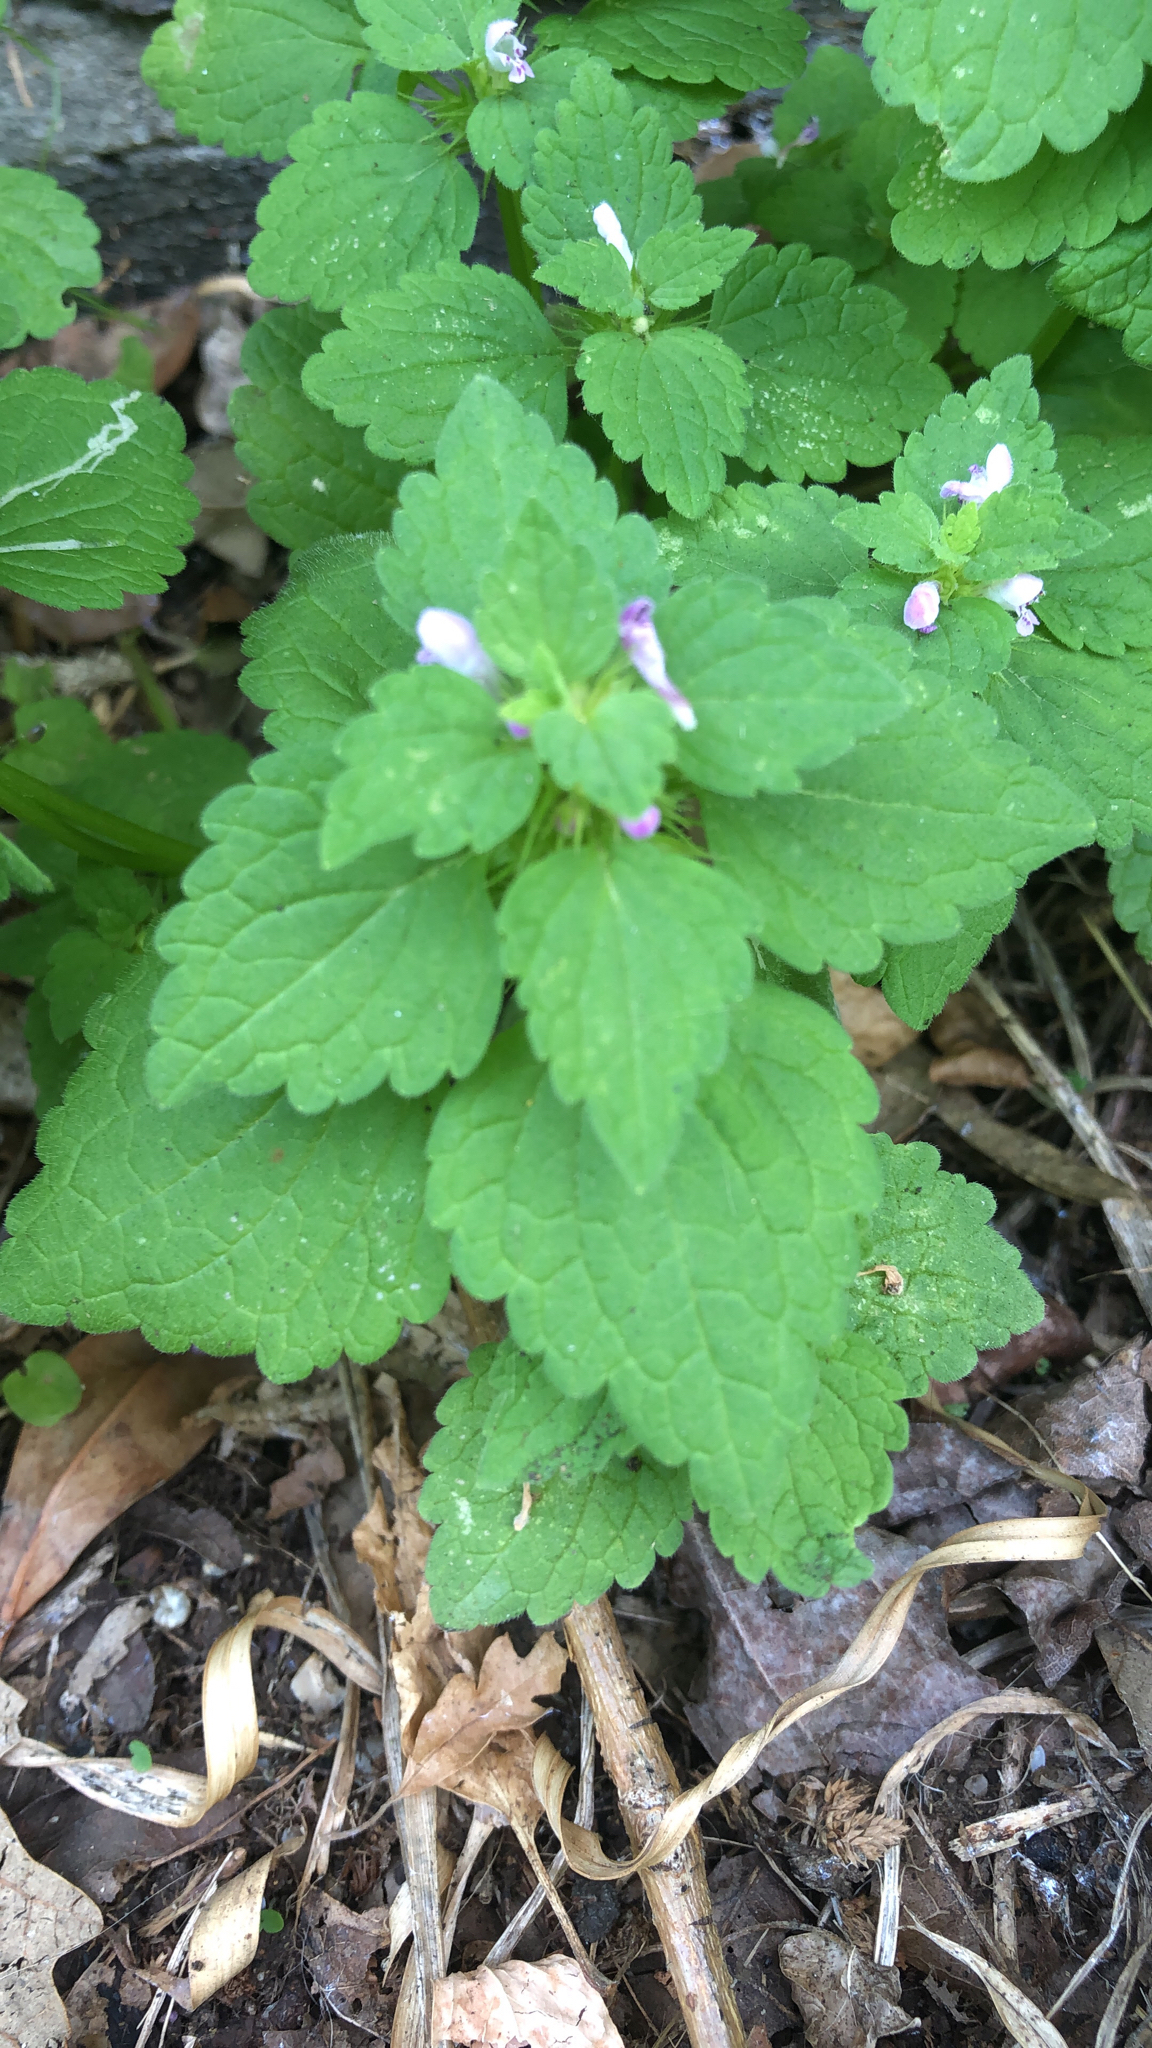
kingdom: Plantae
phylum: Tracheophyta
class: Magnoliopsida
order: Lamiales
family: Lamiaceae
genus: Lamium
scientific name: Lamium purpureum
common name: Red dead-nettle
